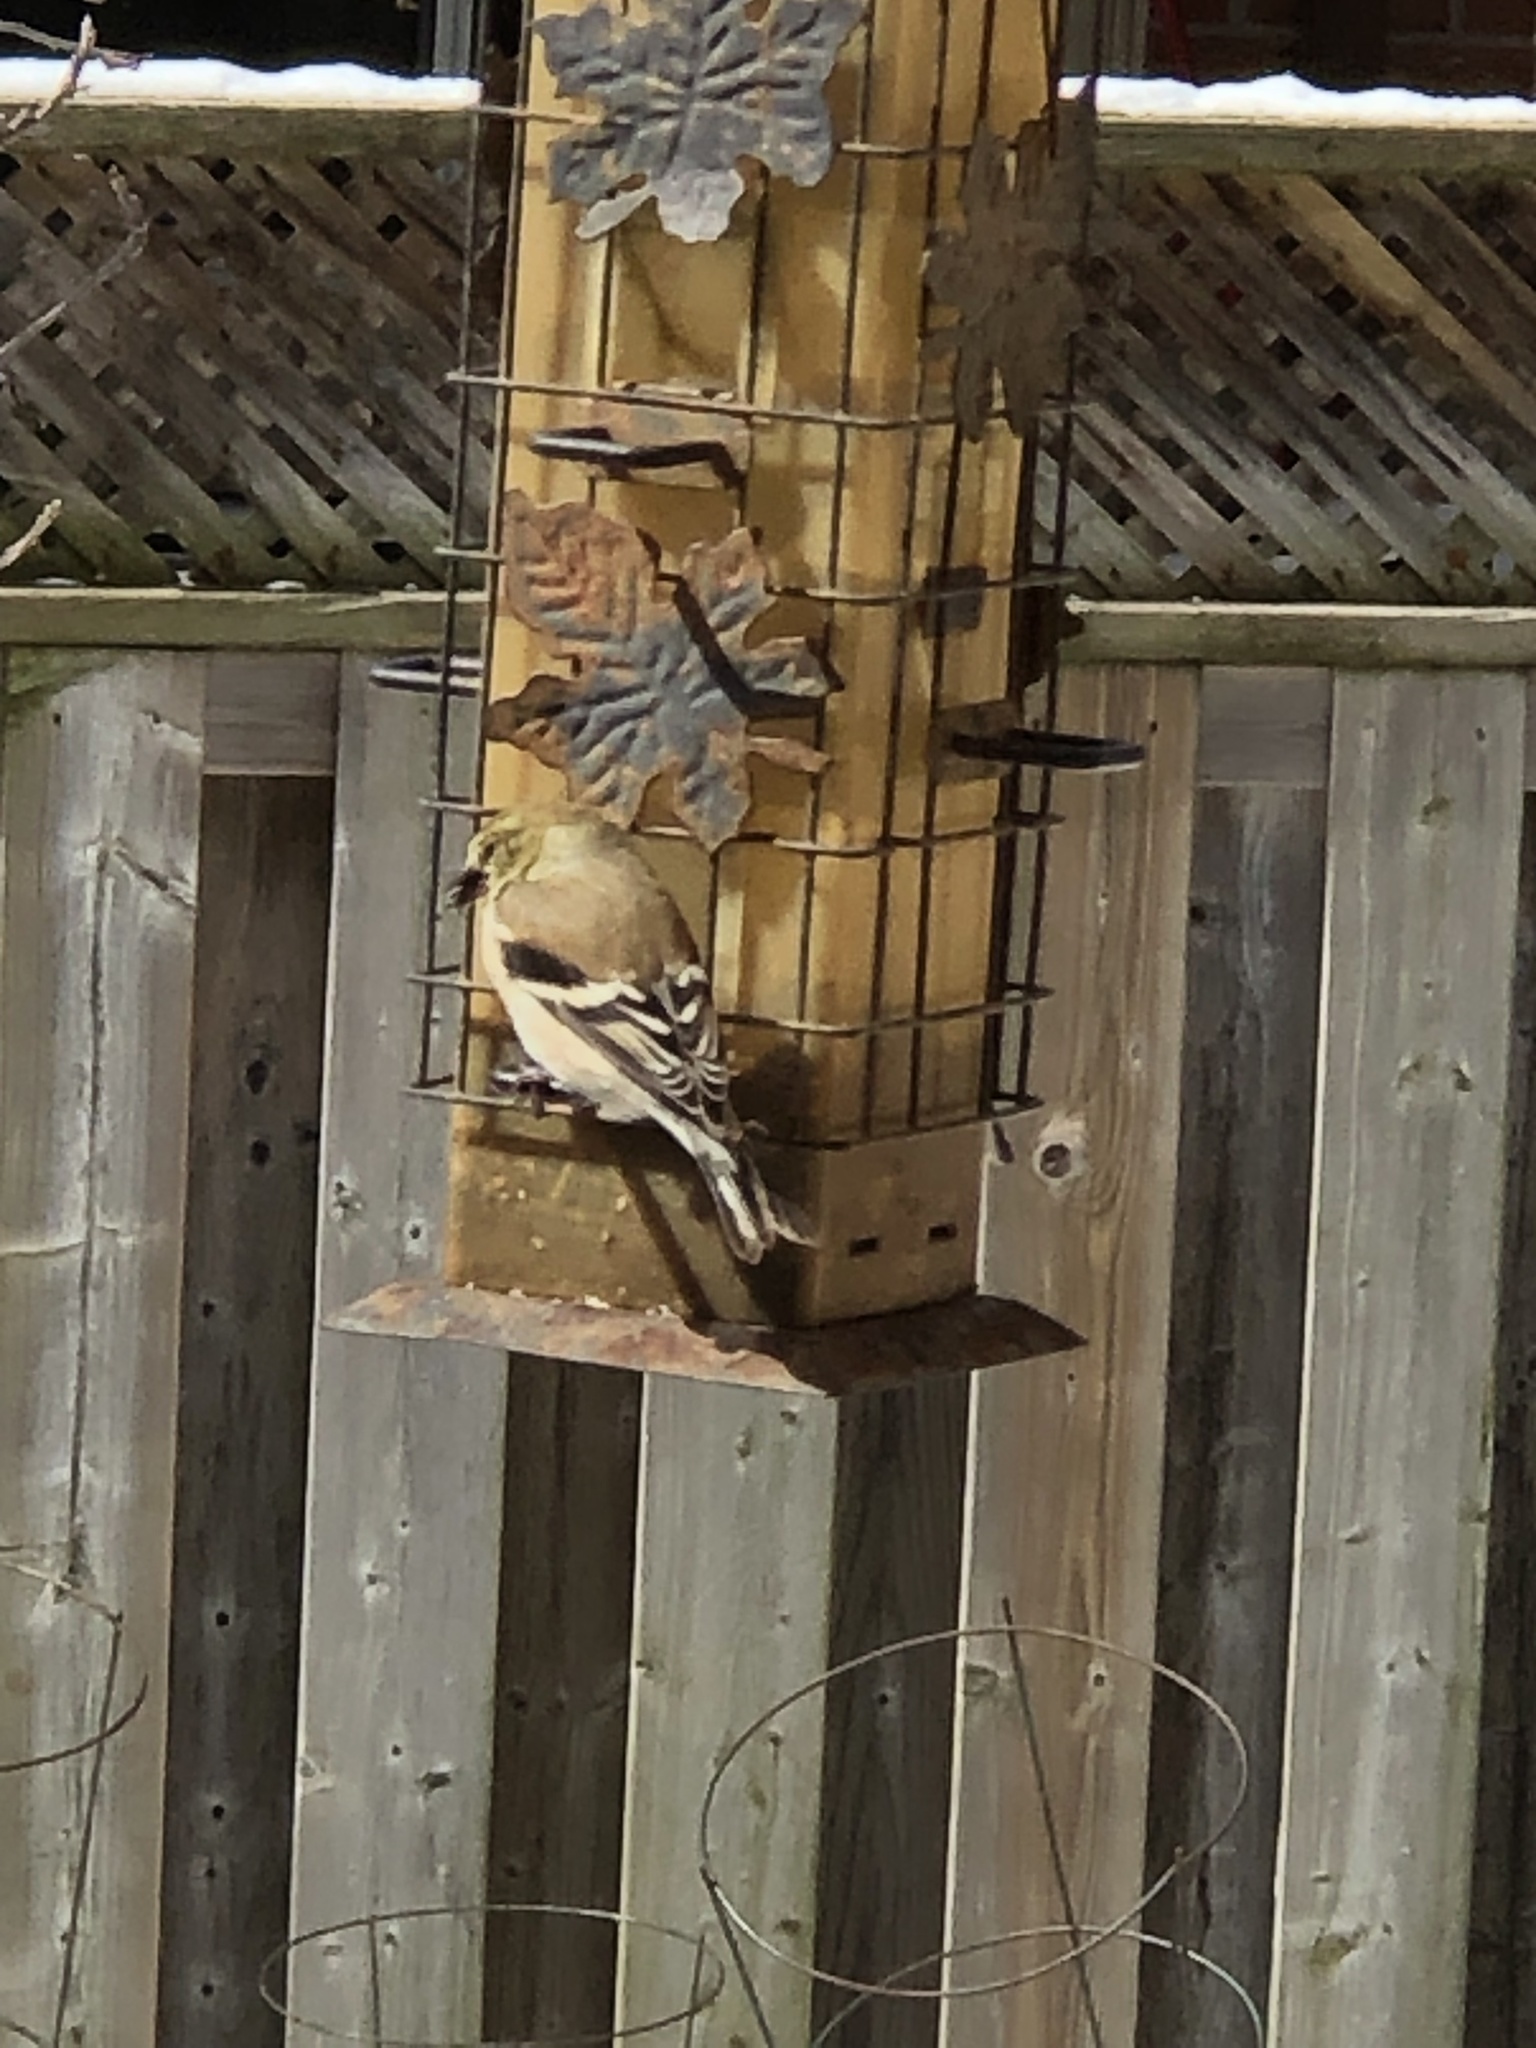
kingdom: Animalia
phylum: Chordata
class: Aves
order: Passeriformes
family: Fringillidae
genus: Spinus
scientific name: Spinus tristis
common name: American goldfinch
